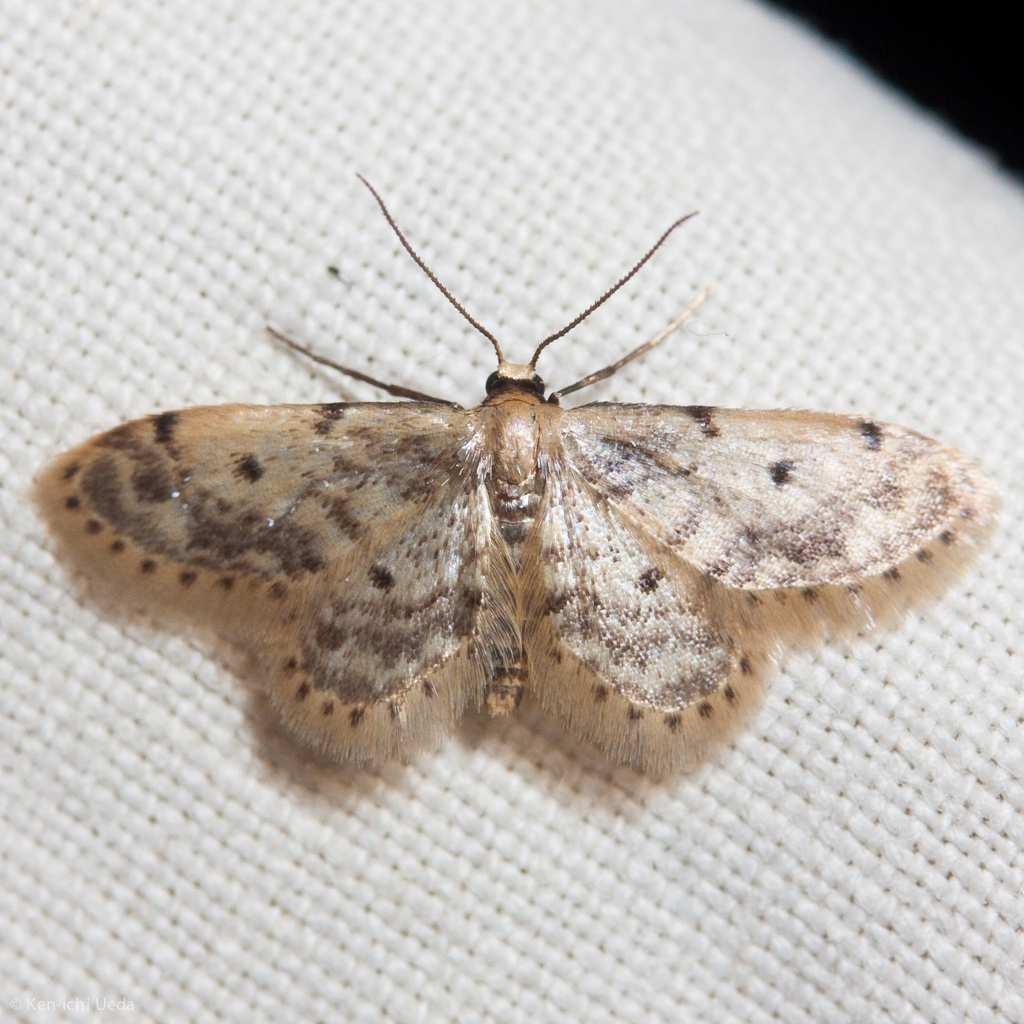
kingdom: Animalia
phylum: Arthropoda
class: Insecta
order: Lepidoptera
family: Geometridae
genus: Idaea
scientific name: Idaea bonifata
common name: Fortunate wave
